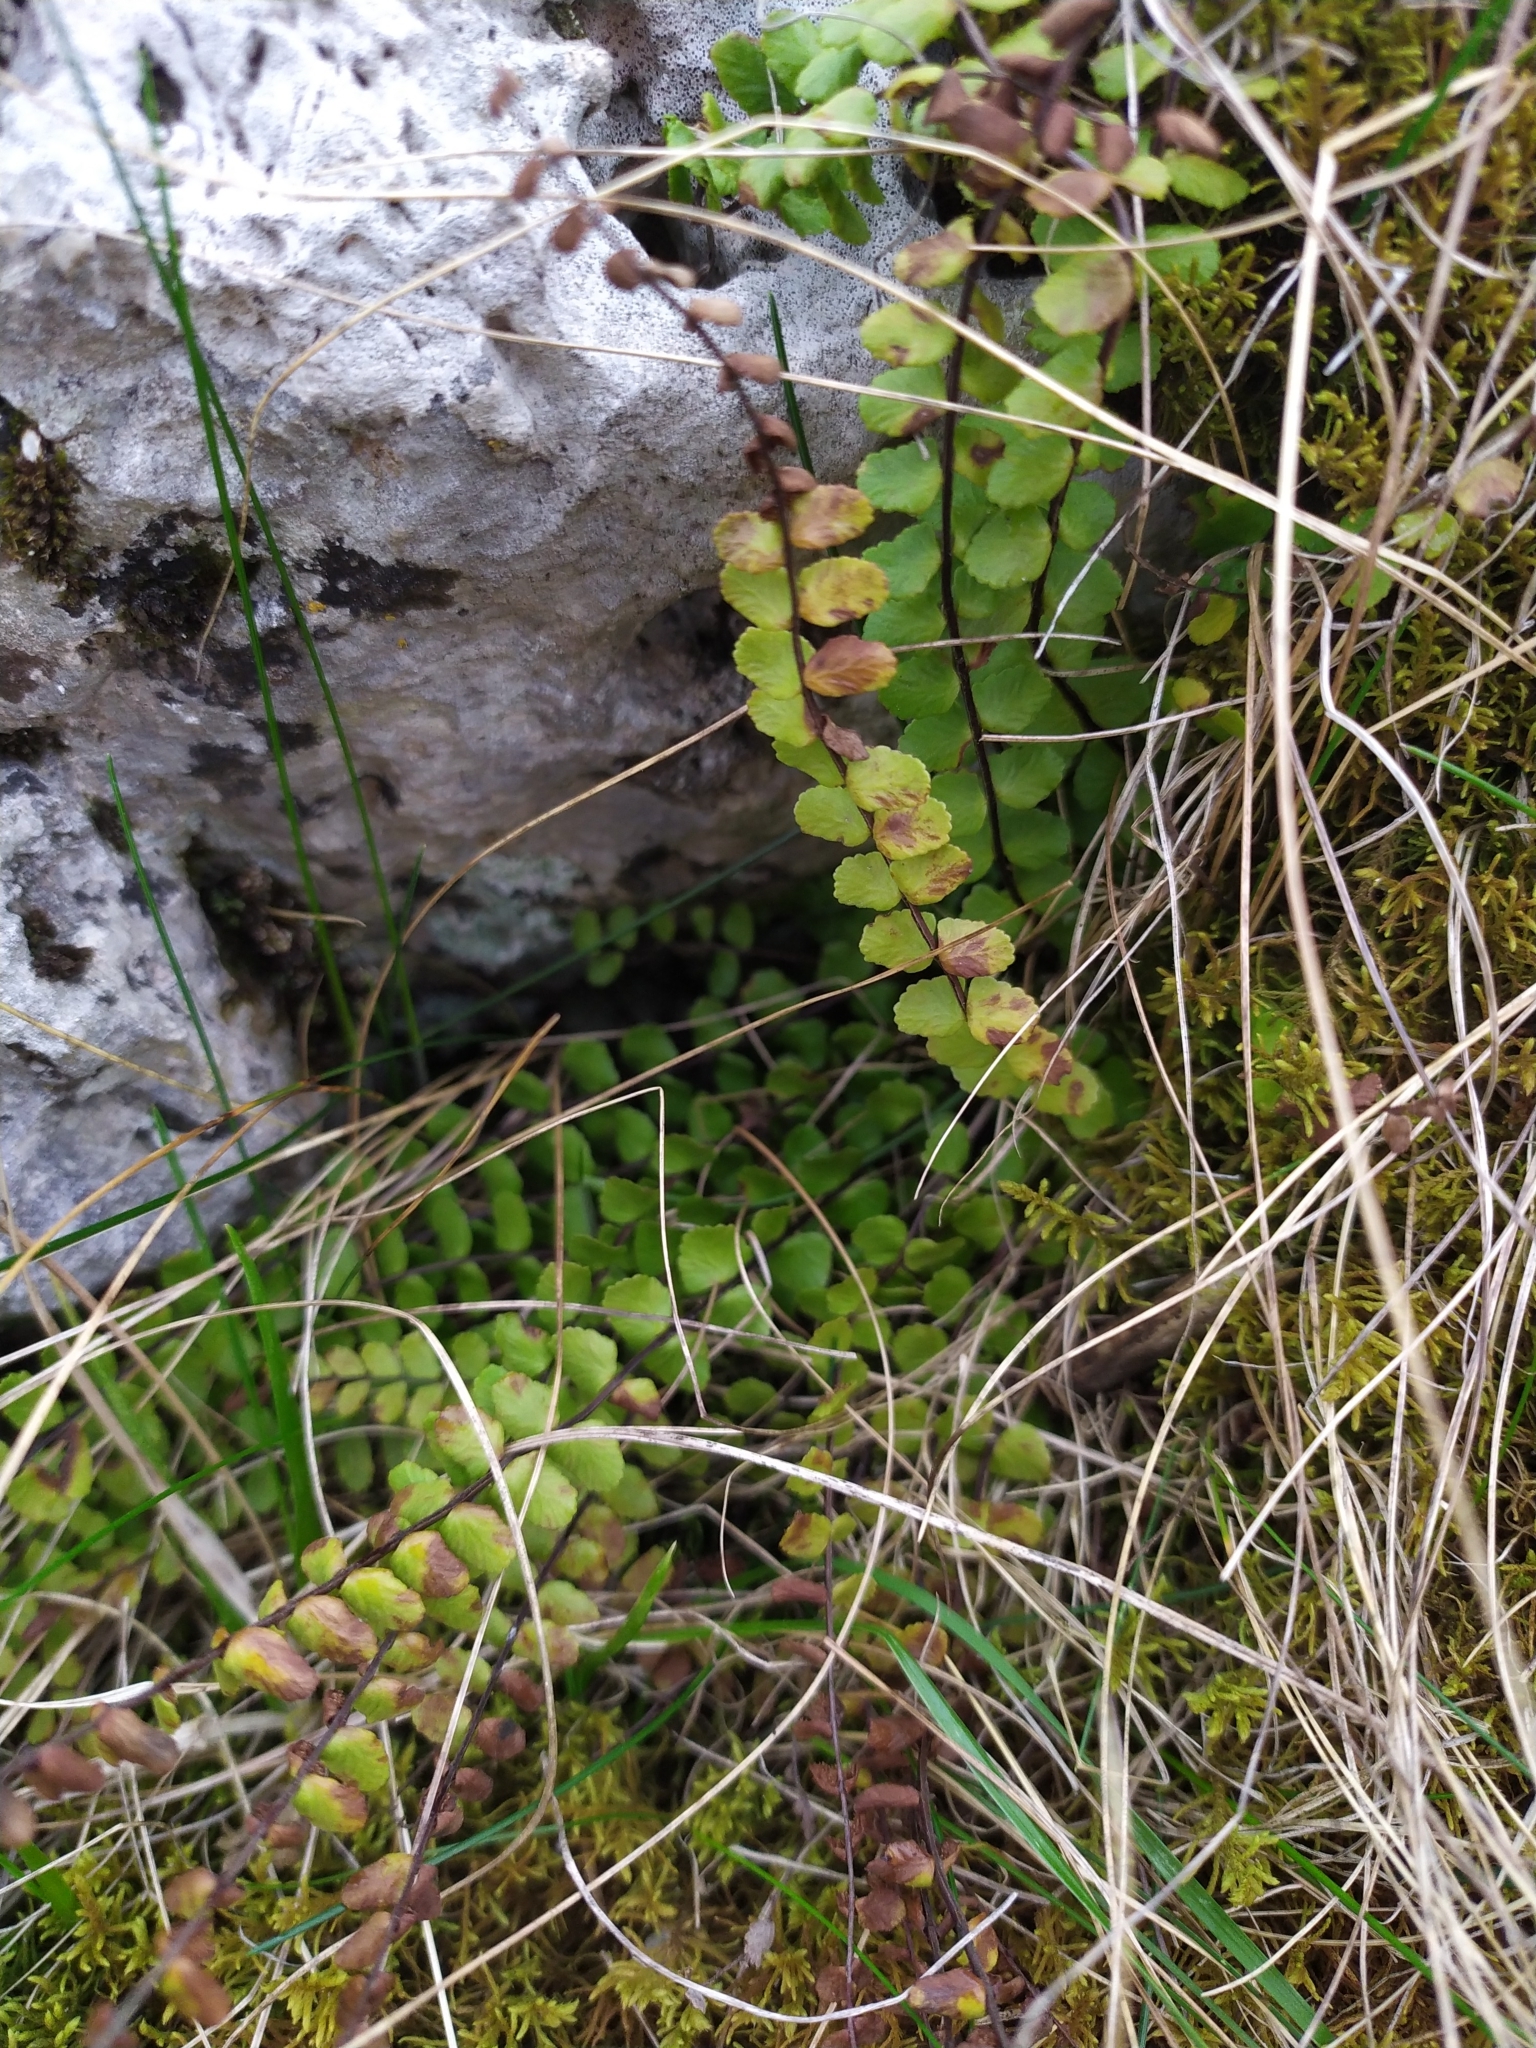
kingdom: Plantae
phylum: Tracheophyta
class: Polypodiopsida
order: Polypodiales
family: Aspleniaceae
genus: Asplenium
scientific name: Asplenium trichomanes
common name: Maidenhair spleenwort
